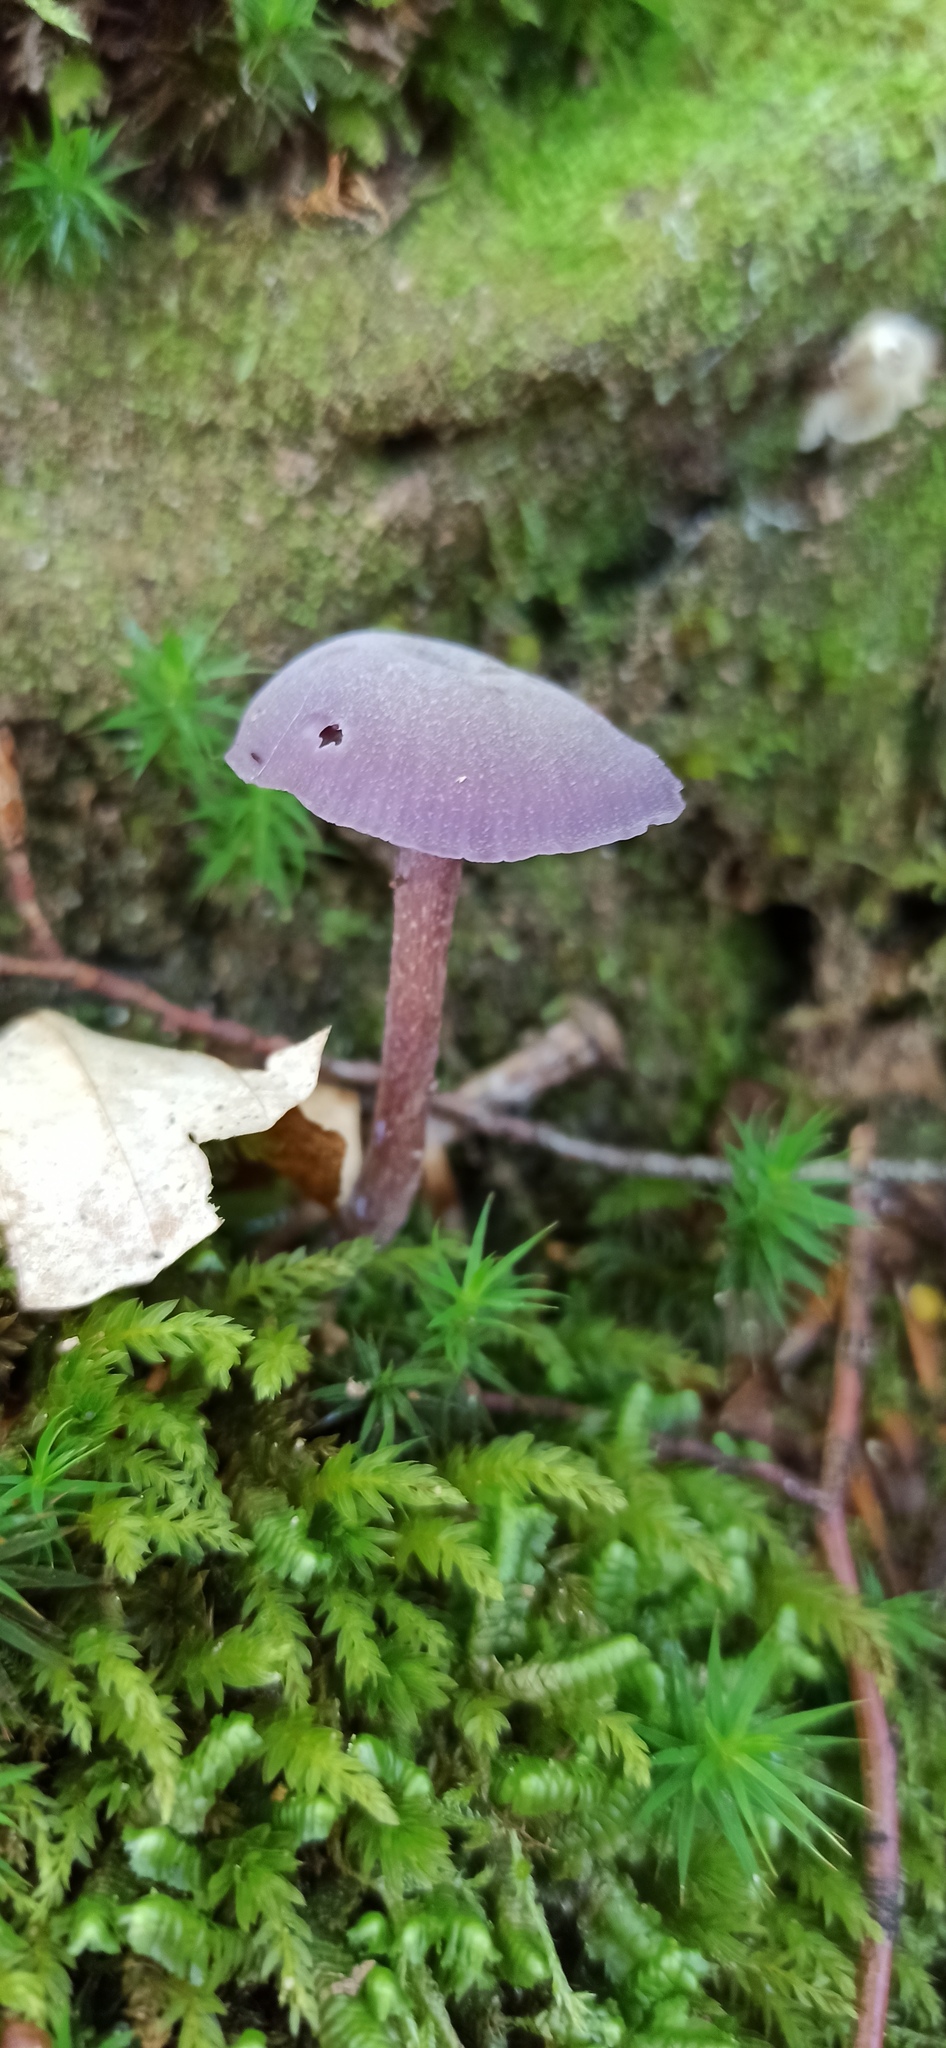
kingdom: Fungi
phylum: Basidiomycota
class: Agaricomycetes
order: Agaricales
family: Hydnangiaceae
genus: Laccaria
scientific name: Laccaria amethystina
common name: Amethyst deceiver
